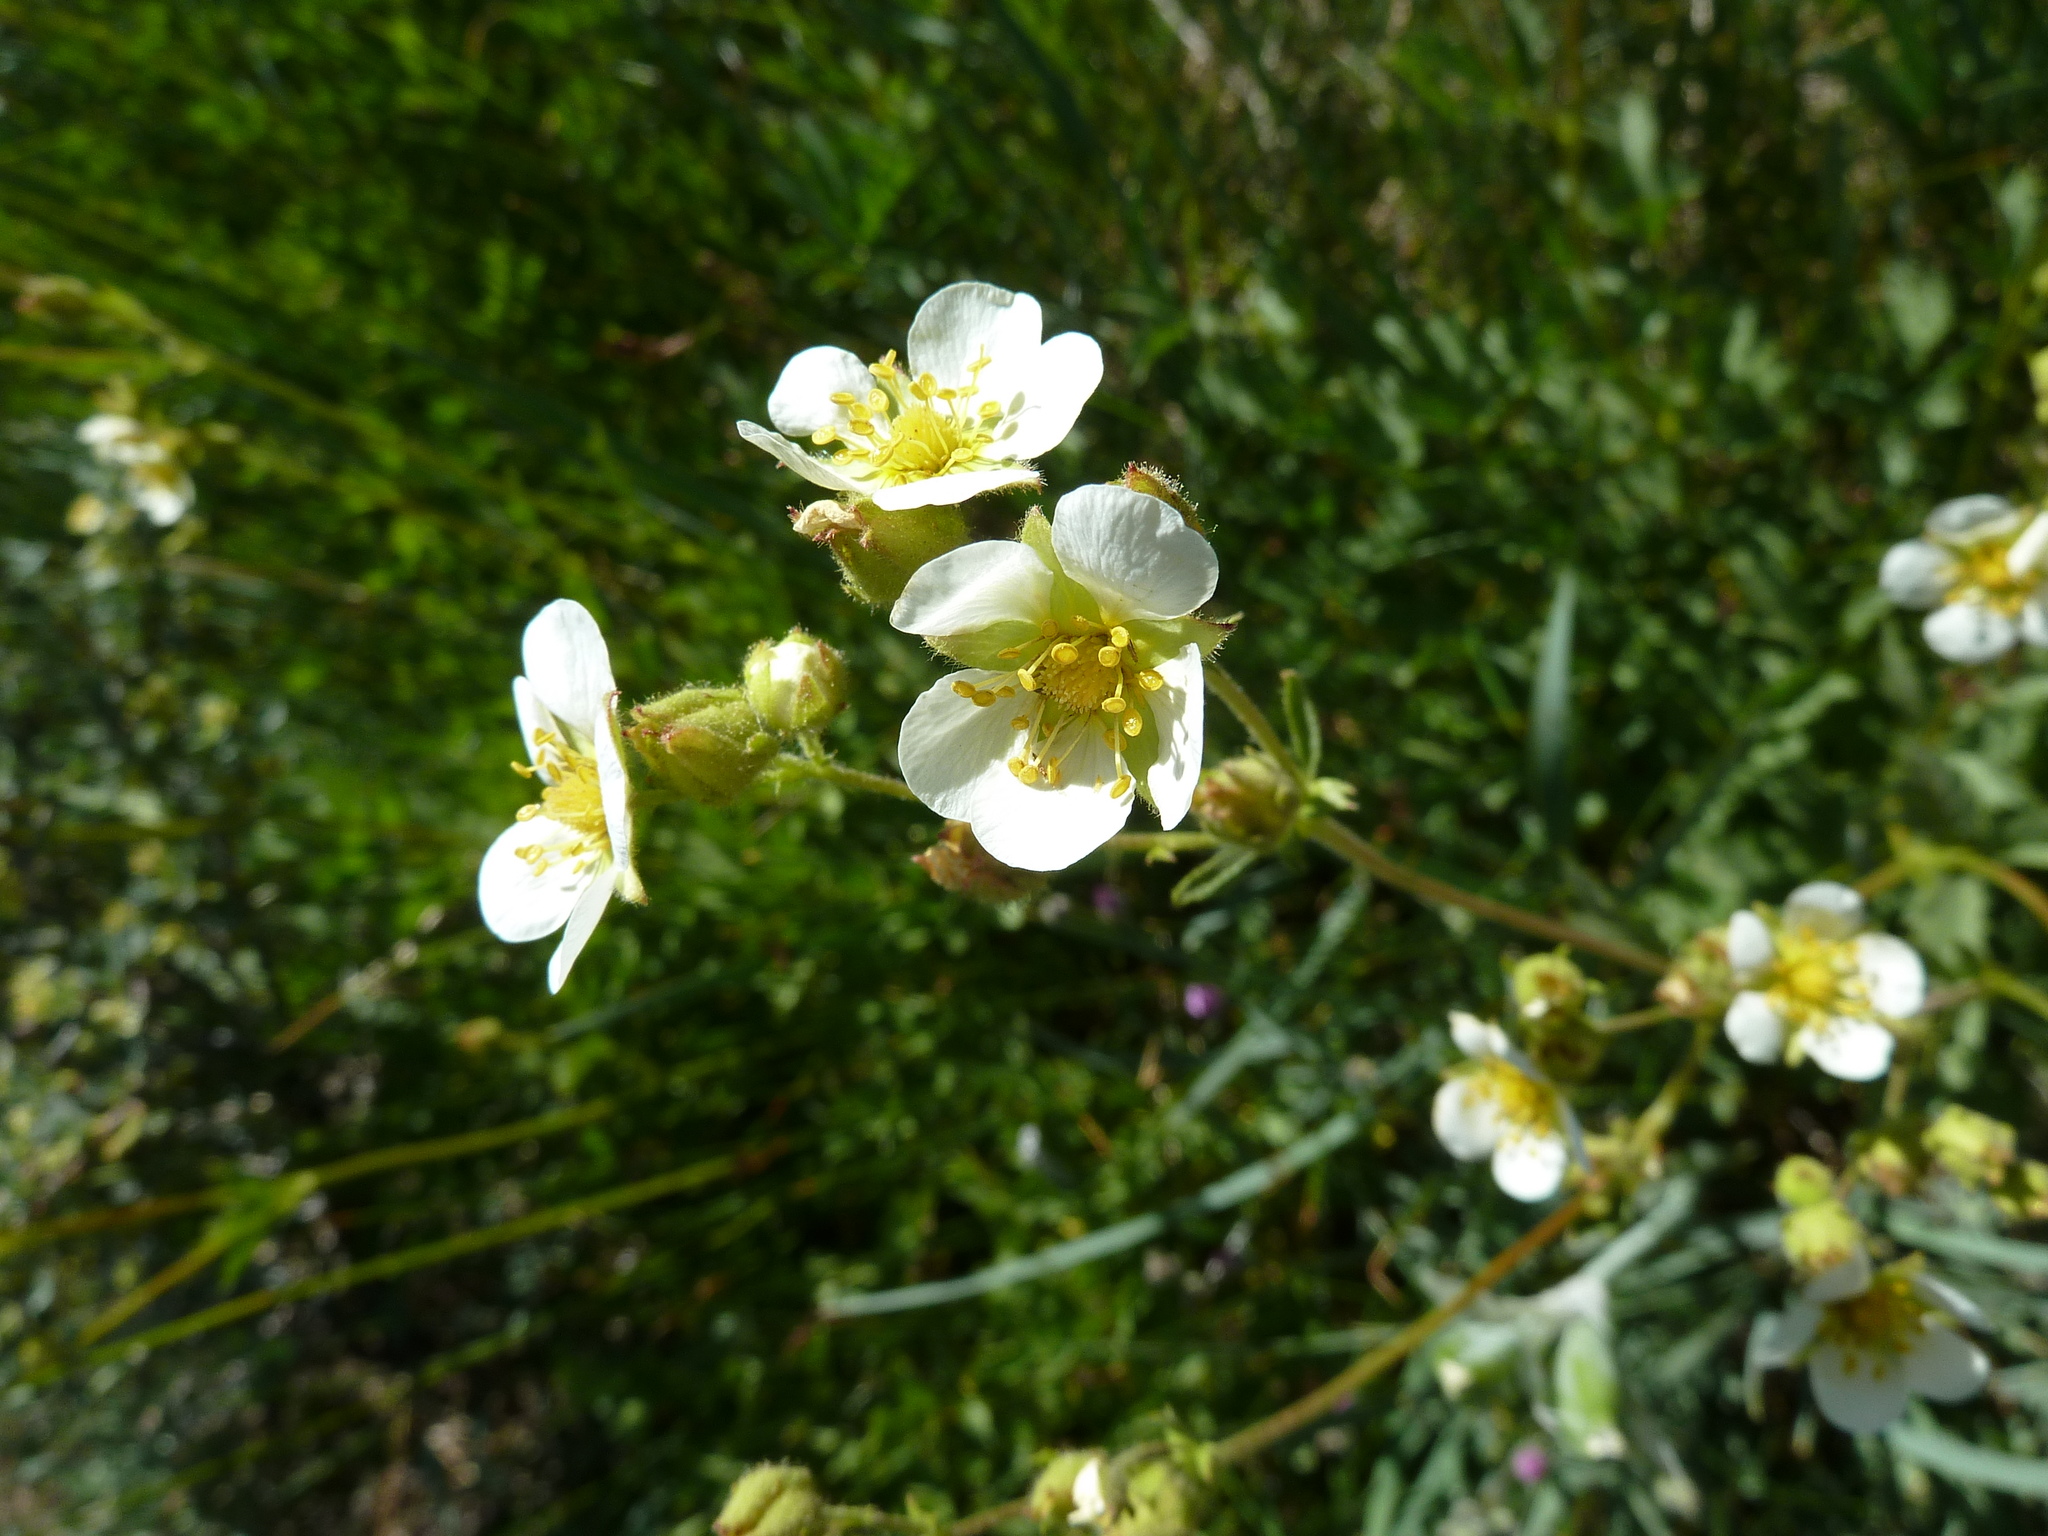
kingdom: Plantae
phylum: Tracheophyta
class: Magnoliopsida
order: Rosales
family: Rosaceae
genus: Drymocallis
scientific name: Drymocallis glandulosa
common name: Sticky cinquefoil
